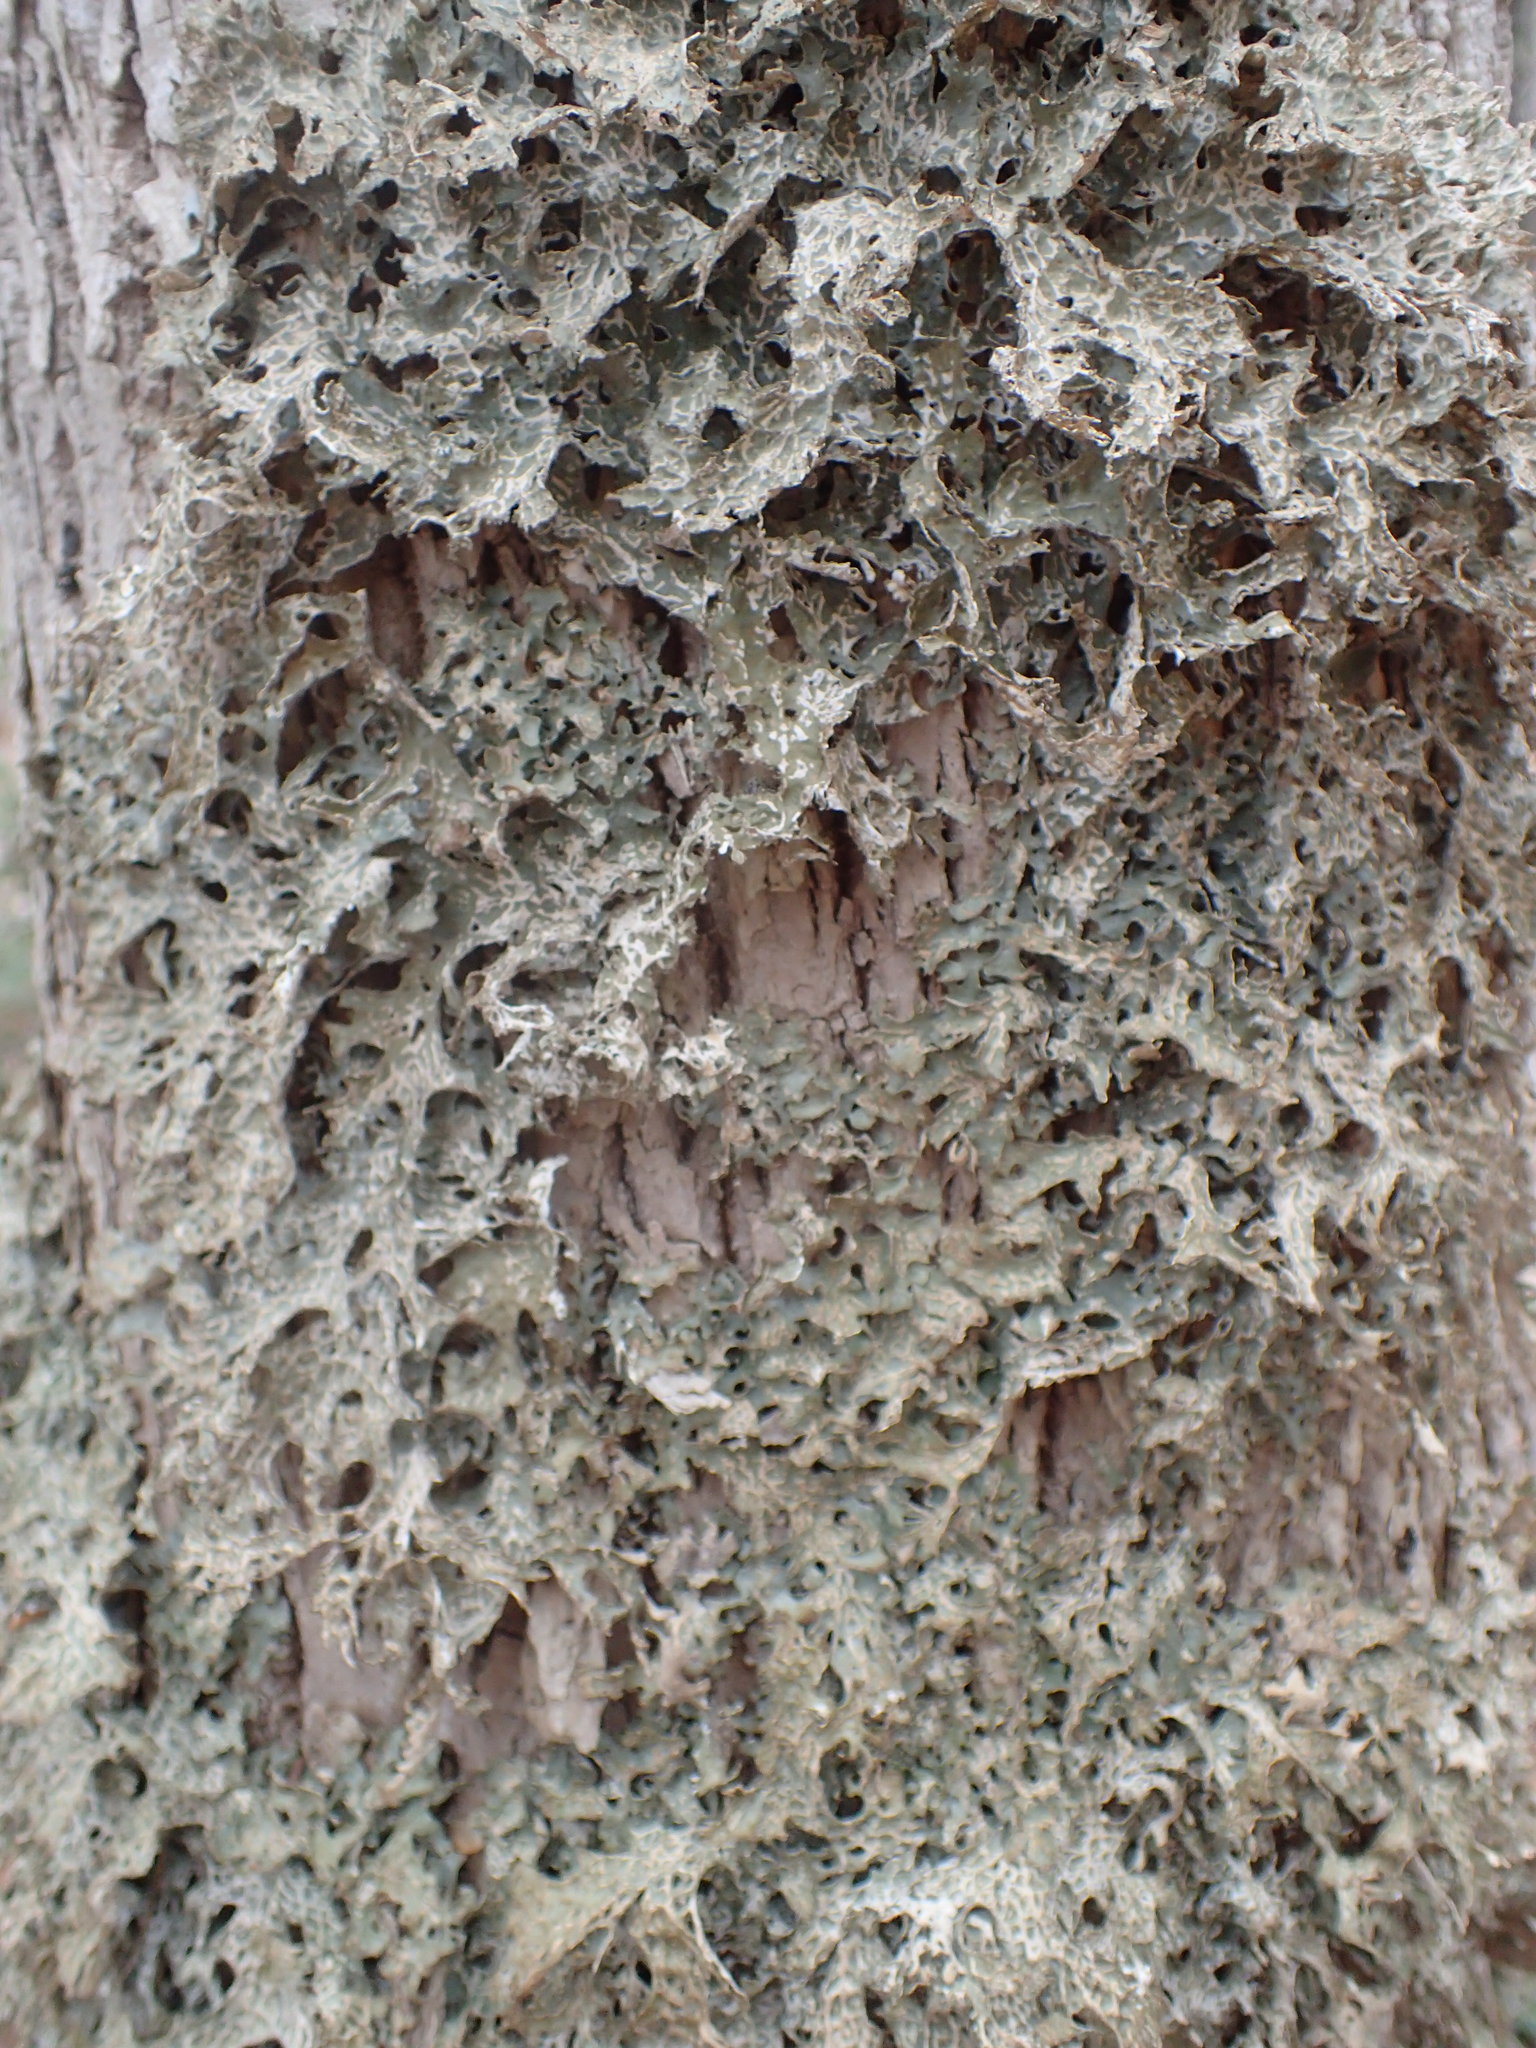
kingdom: Fungi
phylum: Ascomycota
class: Lecanoromycetes
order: Peltigerales
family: Lobariaceae
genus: Lobaria
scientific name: Lobaria pulmonaria
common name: Lungwort
